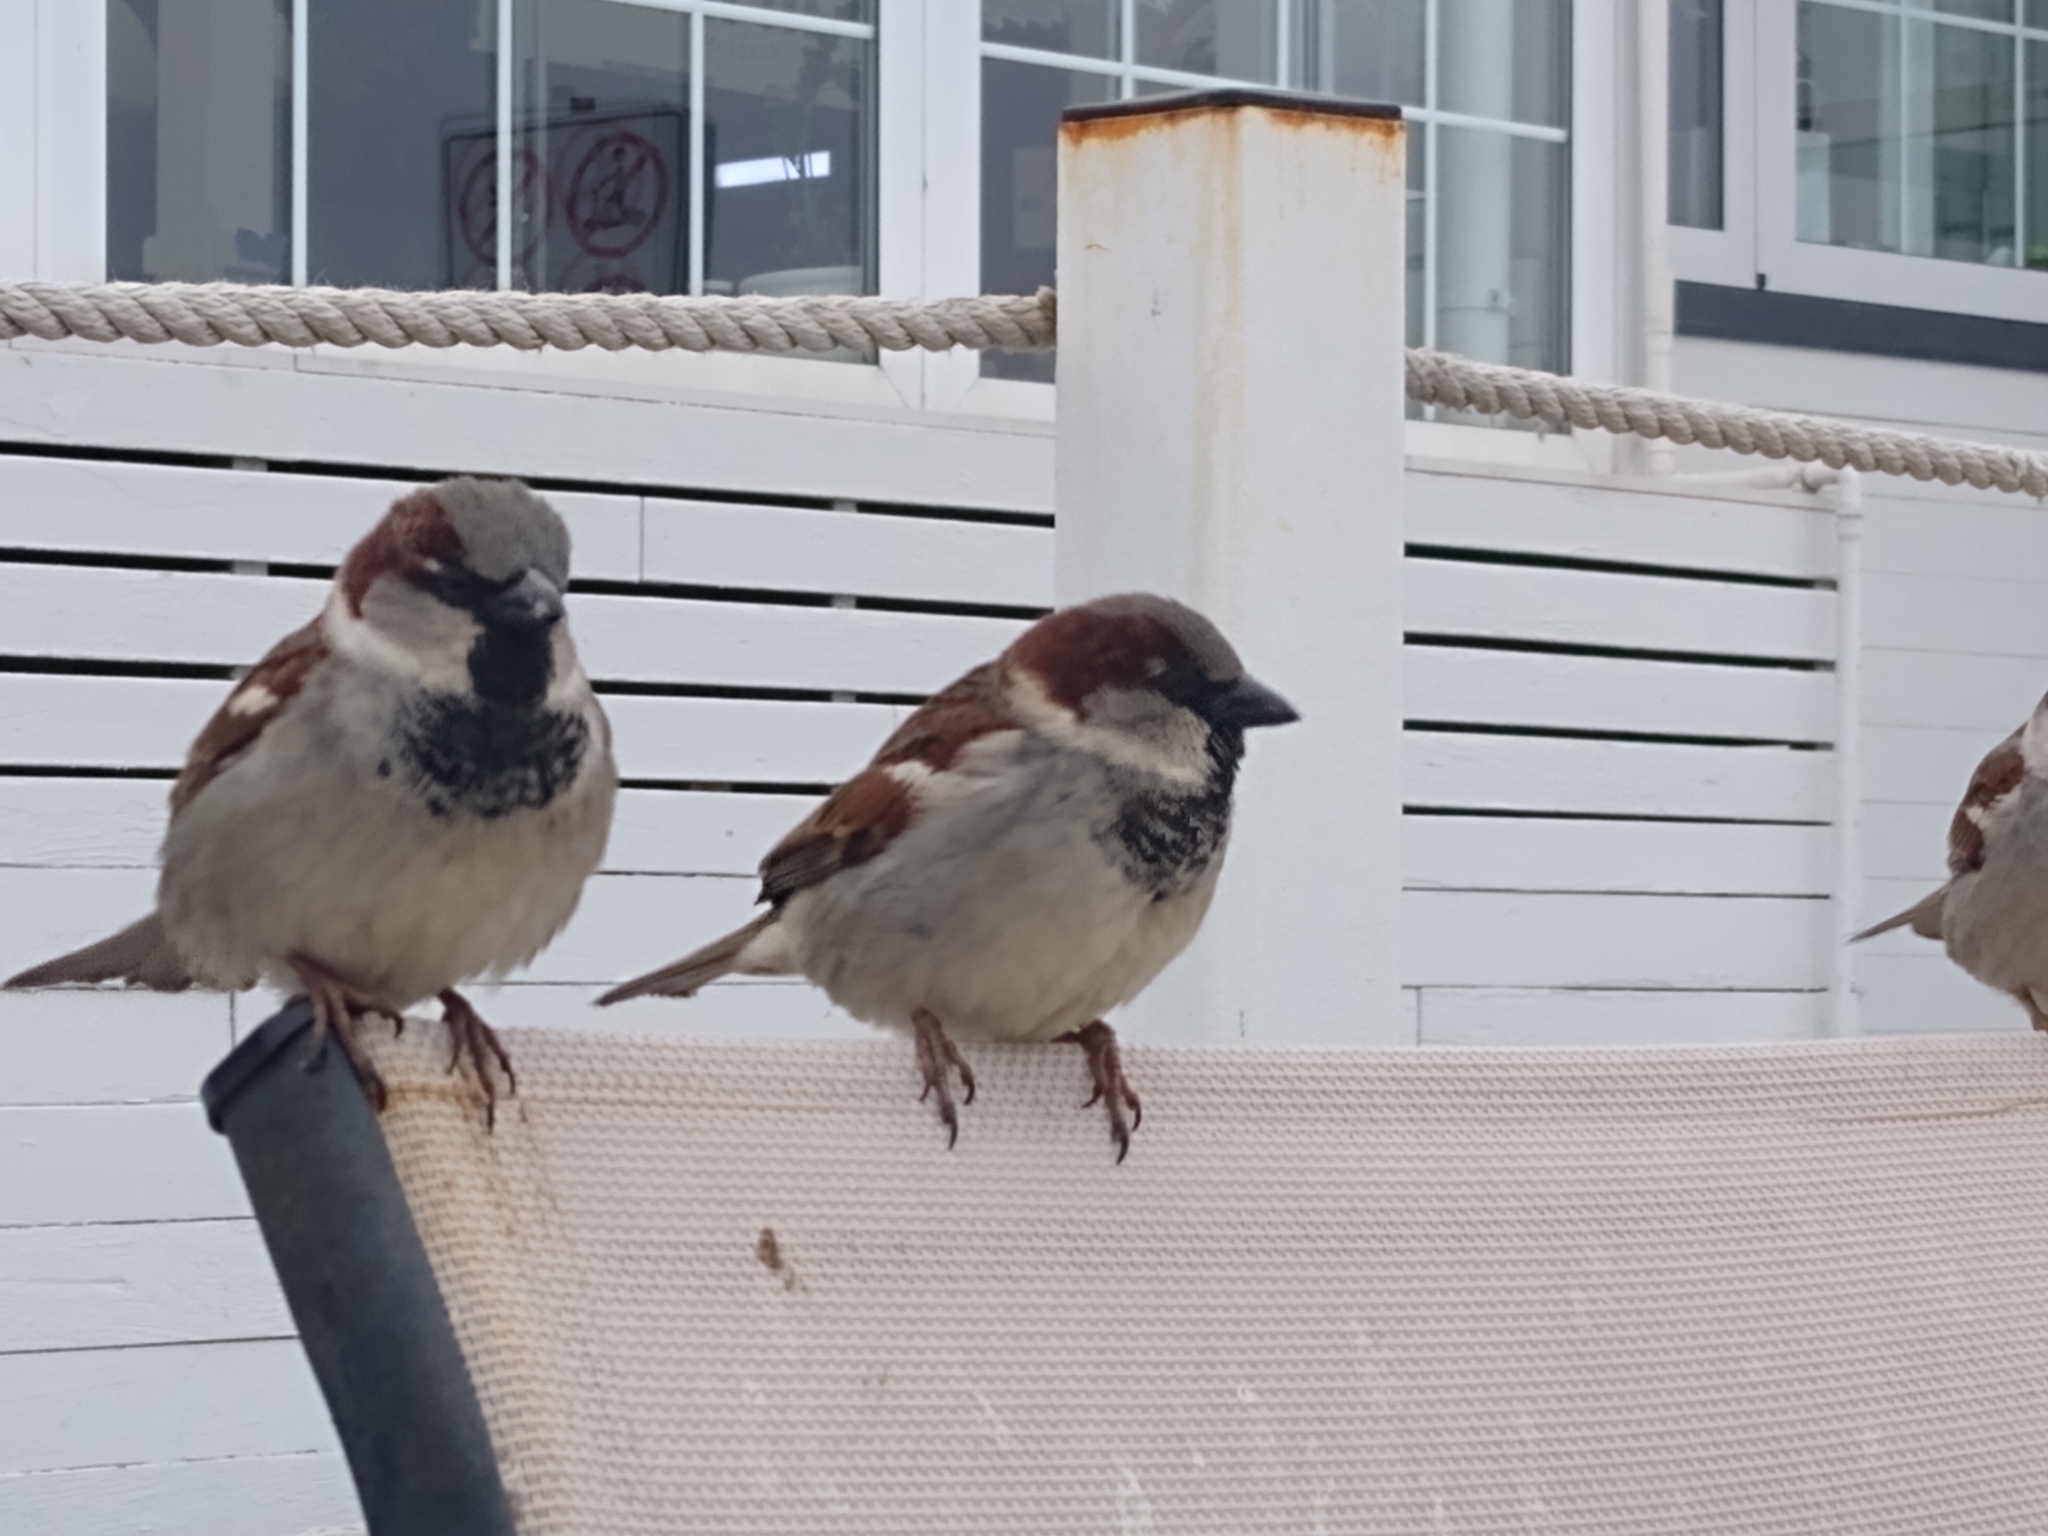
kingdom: Animalia
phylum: Chordata
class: Aves
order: Passeriformes
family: Passeridae
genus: Passer
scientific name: Passer domesticus
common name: House sparrow
